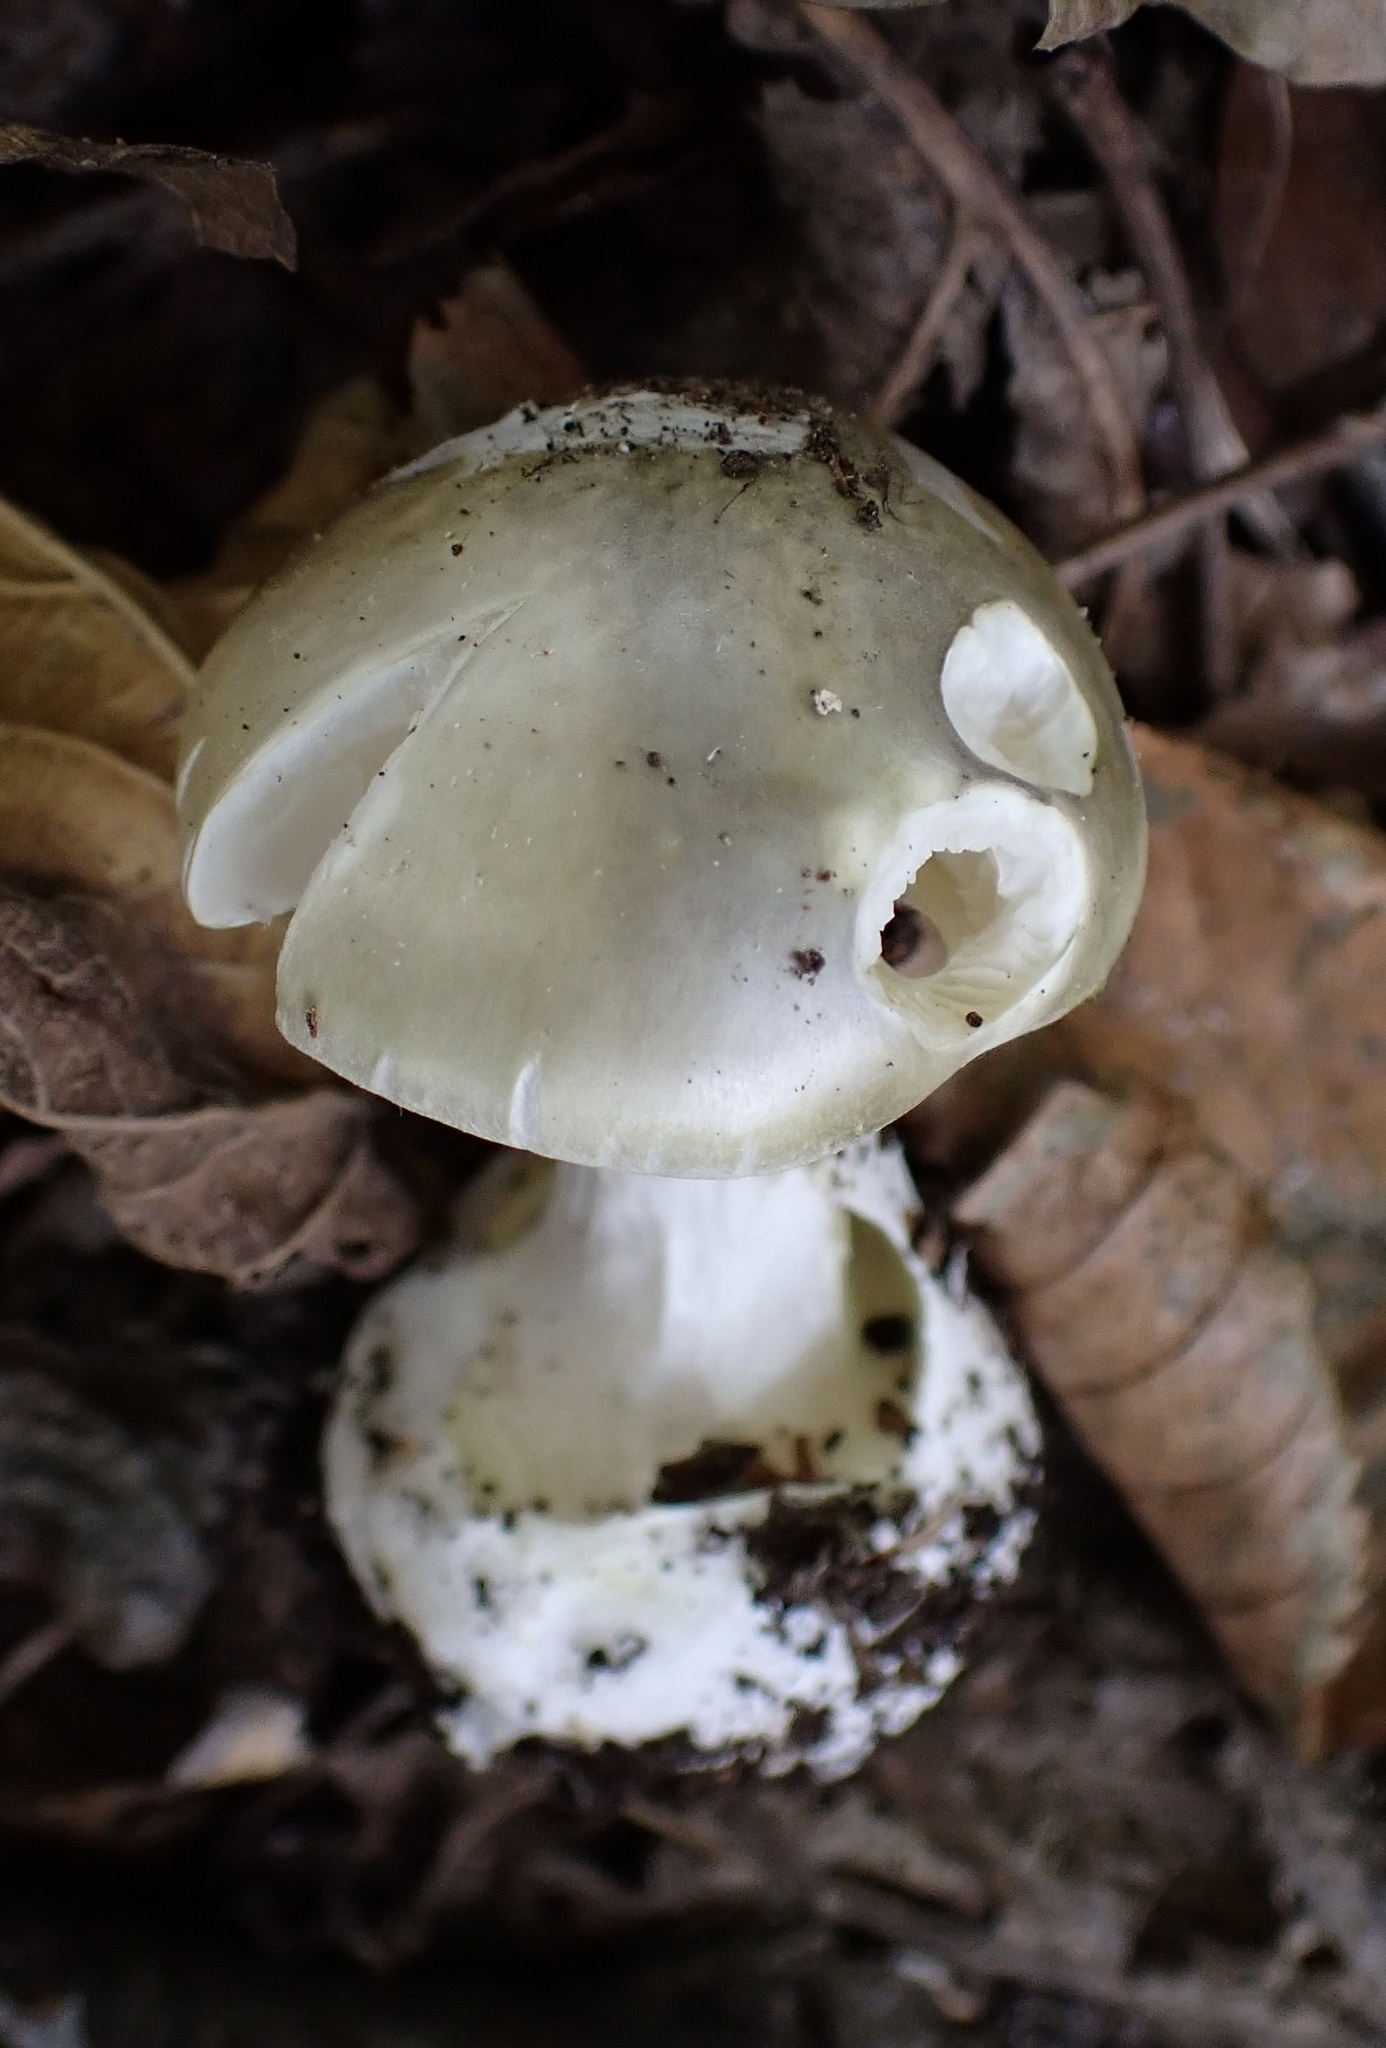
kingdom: Fungi
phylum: Basidiomycota
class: Agaricomycetes
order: Agaricales
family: Amanitaceae
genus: Amanita
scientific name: Amanita phalloides
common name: Death cap
